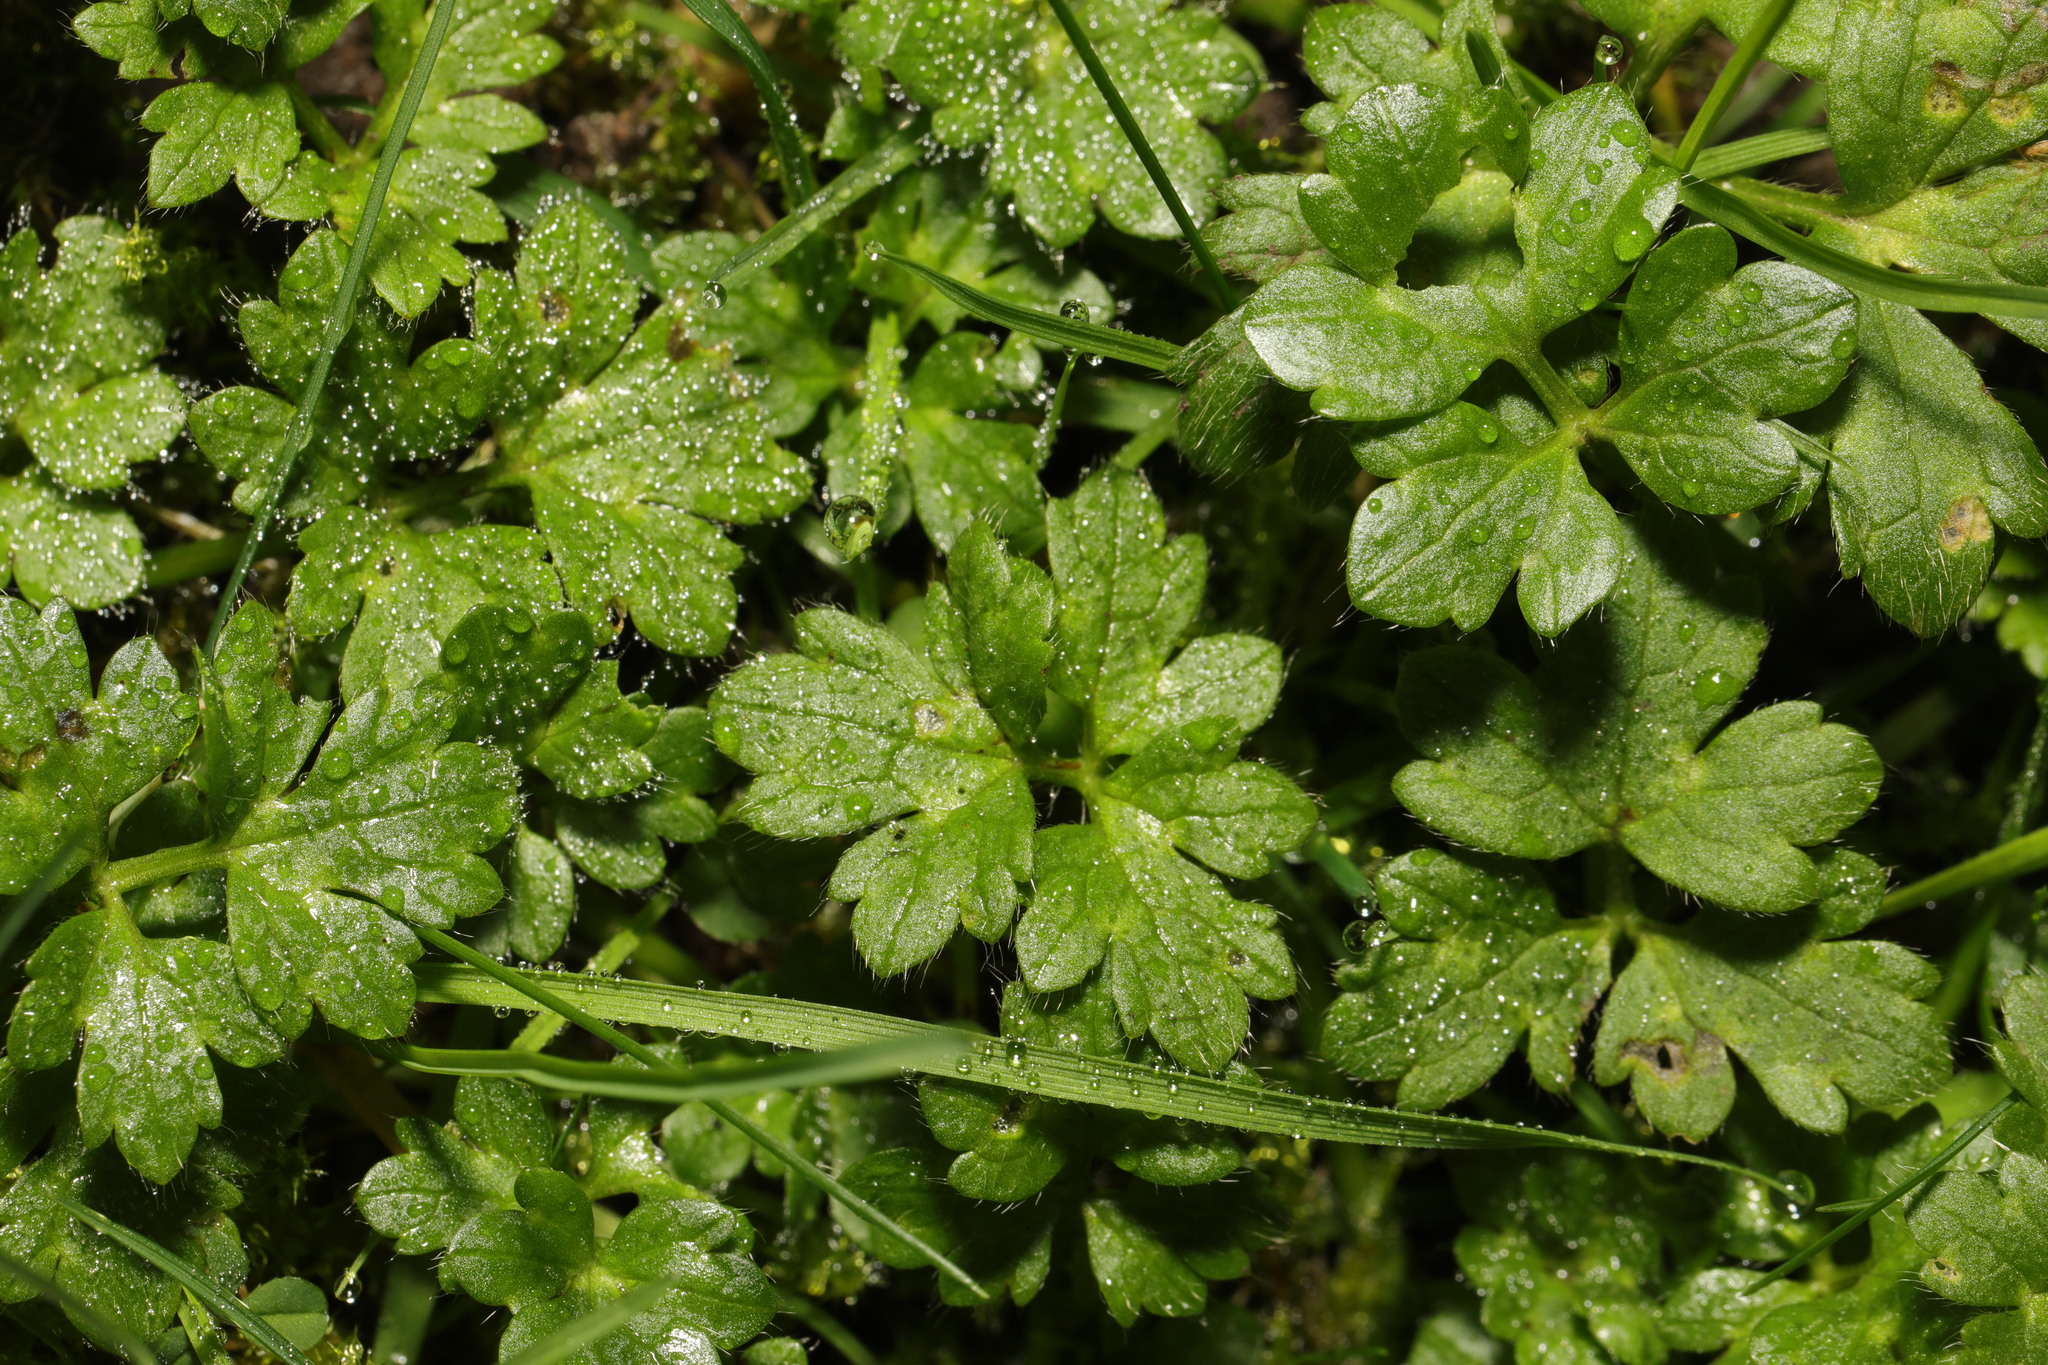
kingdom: Plantae
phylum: Tracheophyta
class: Magnoliopsida
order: Ranunculales
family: Ranunculaceae
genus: Ranunculus
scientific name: Ranunculus repens
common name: Creeping buttercup
